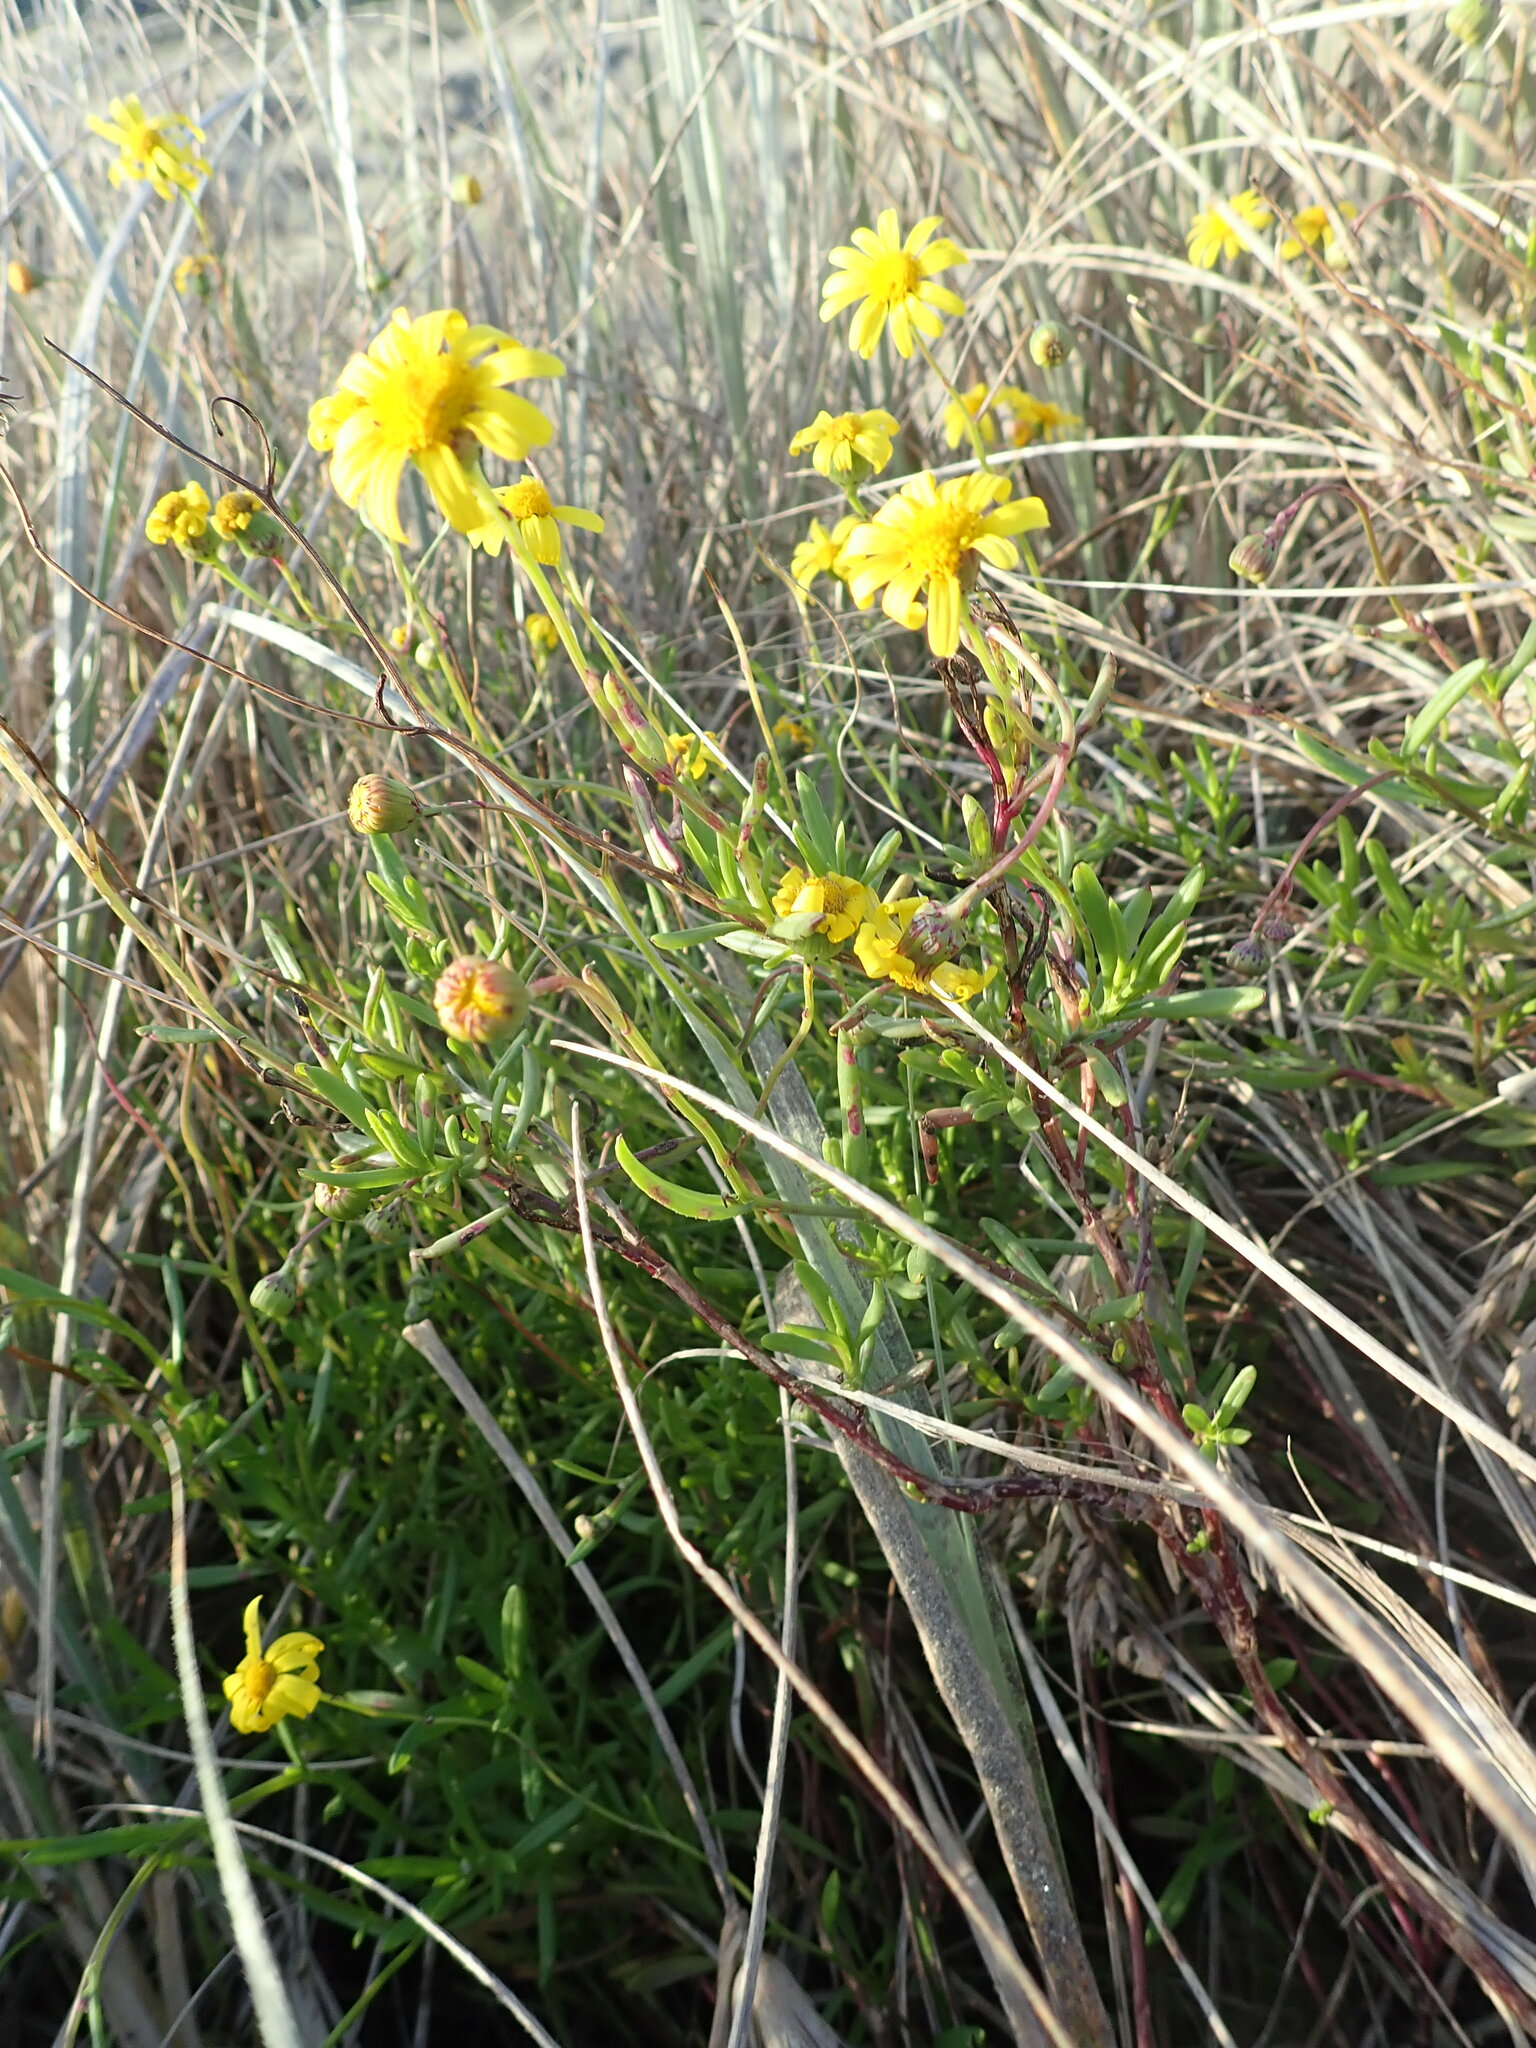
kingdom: Plantae
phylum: Tracheophyta
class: Magnoliopsida
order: Asterales
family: Asteraceae
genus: Senecio
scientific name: Senecio skirrhodon
